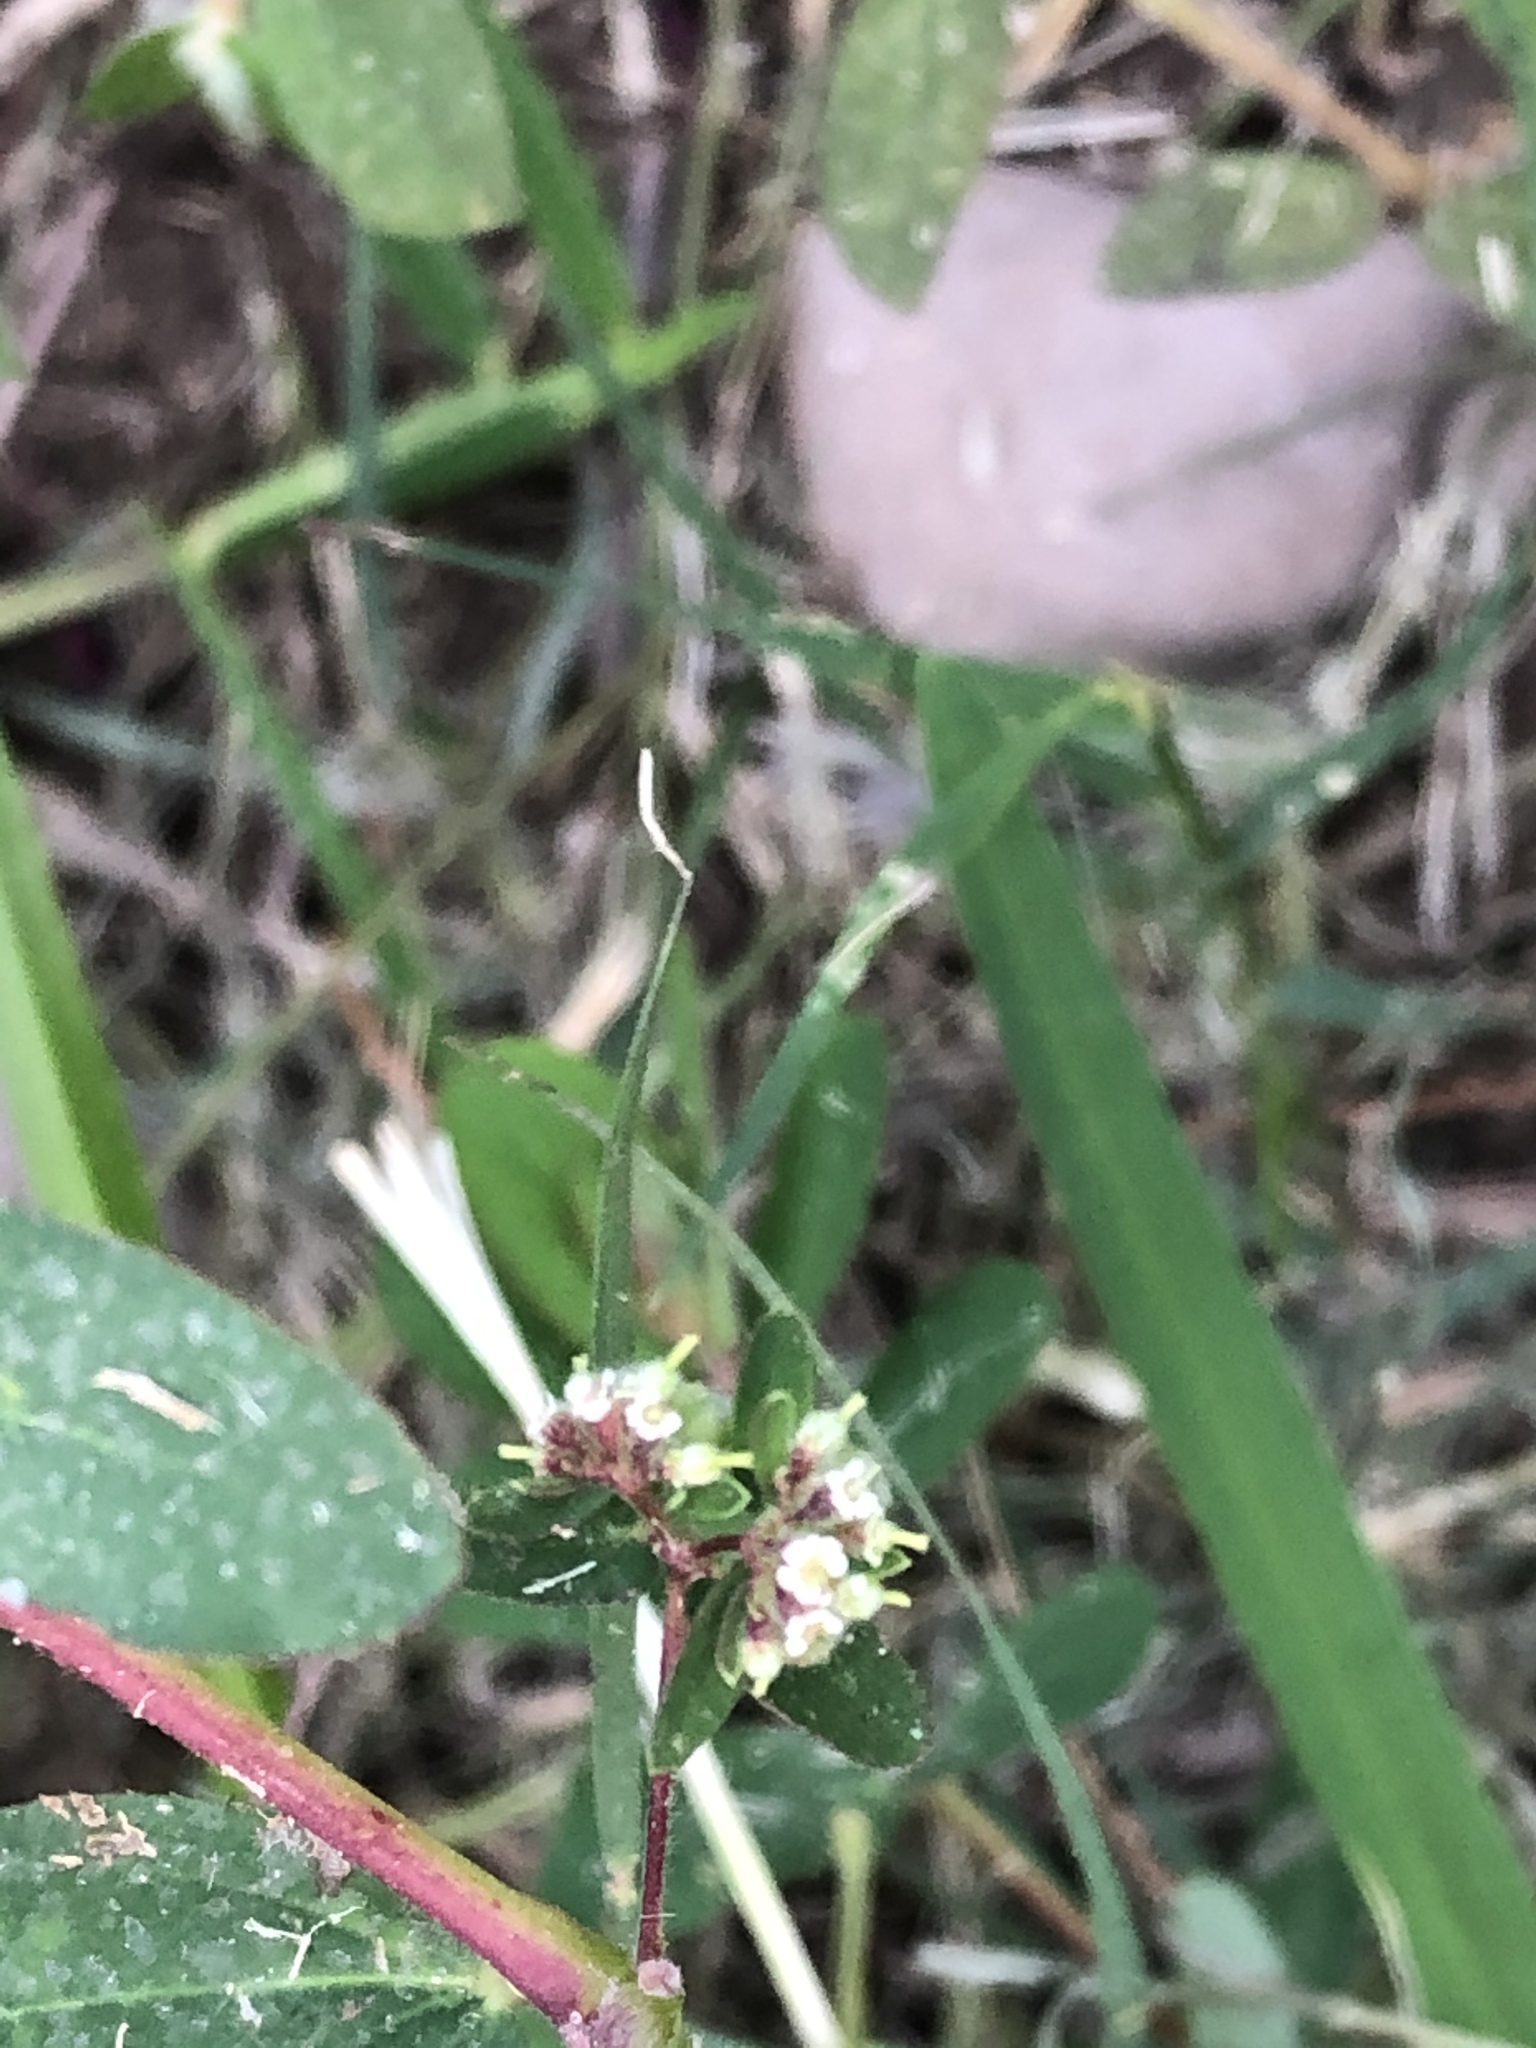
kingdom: Plantae
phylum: Tracheophyta
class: Magnoliopsida
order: Malpighiales
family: Euphorbiaceae
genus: Euphorbia
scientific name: Euphorbia lasiocarpa
